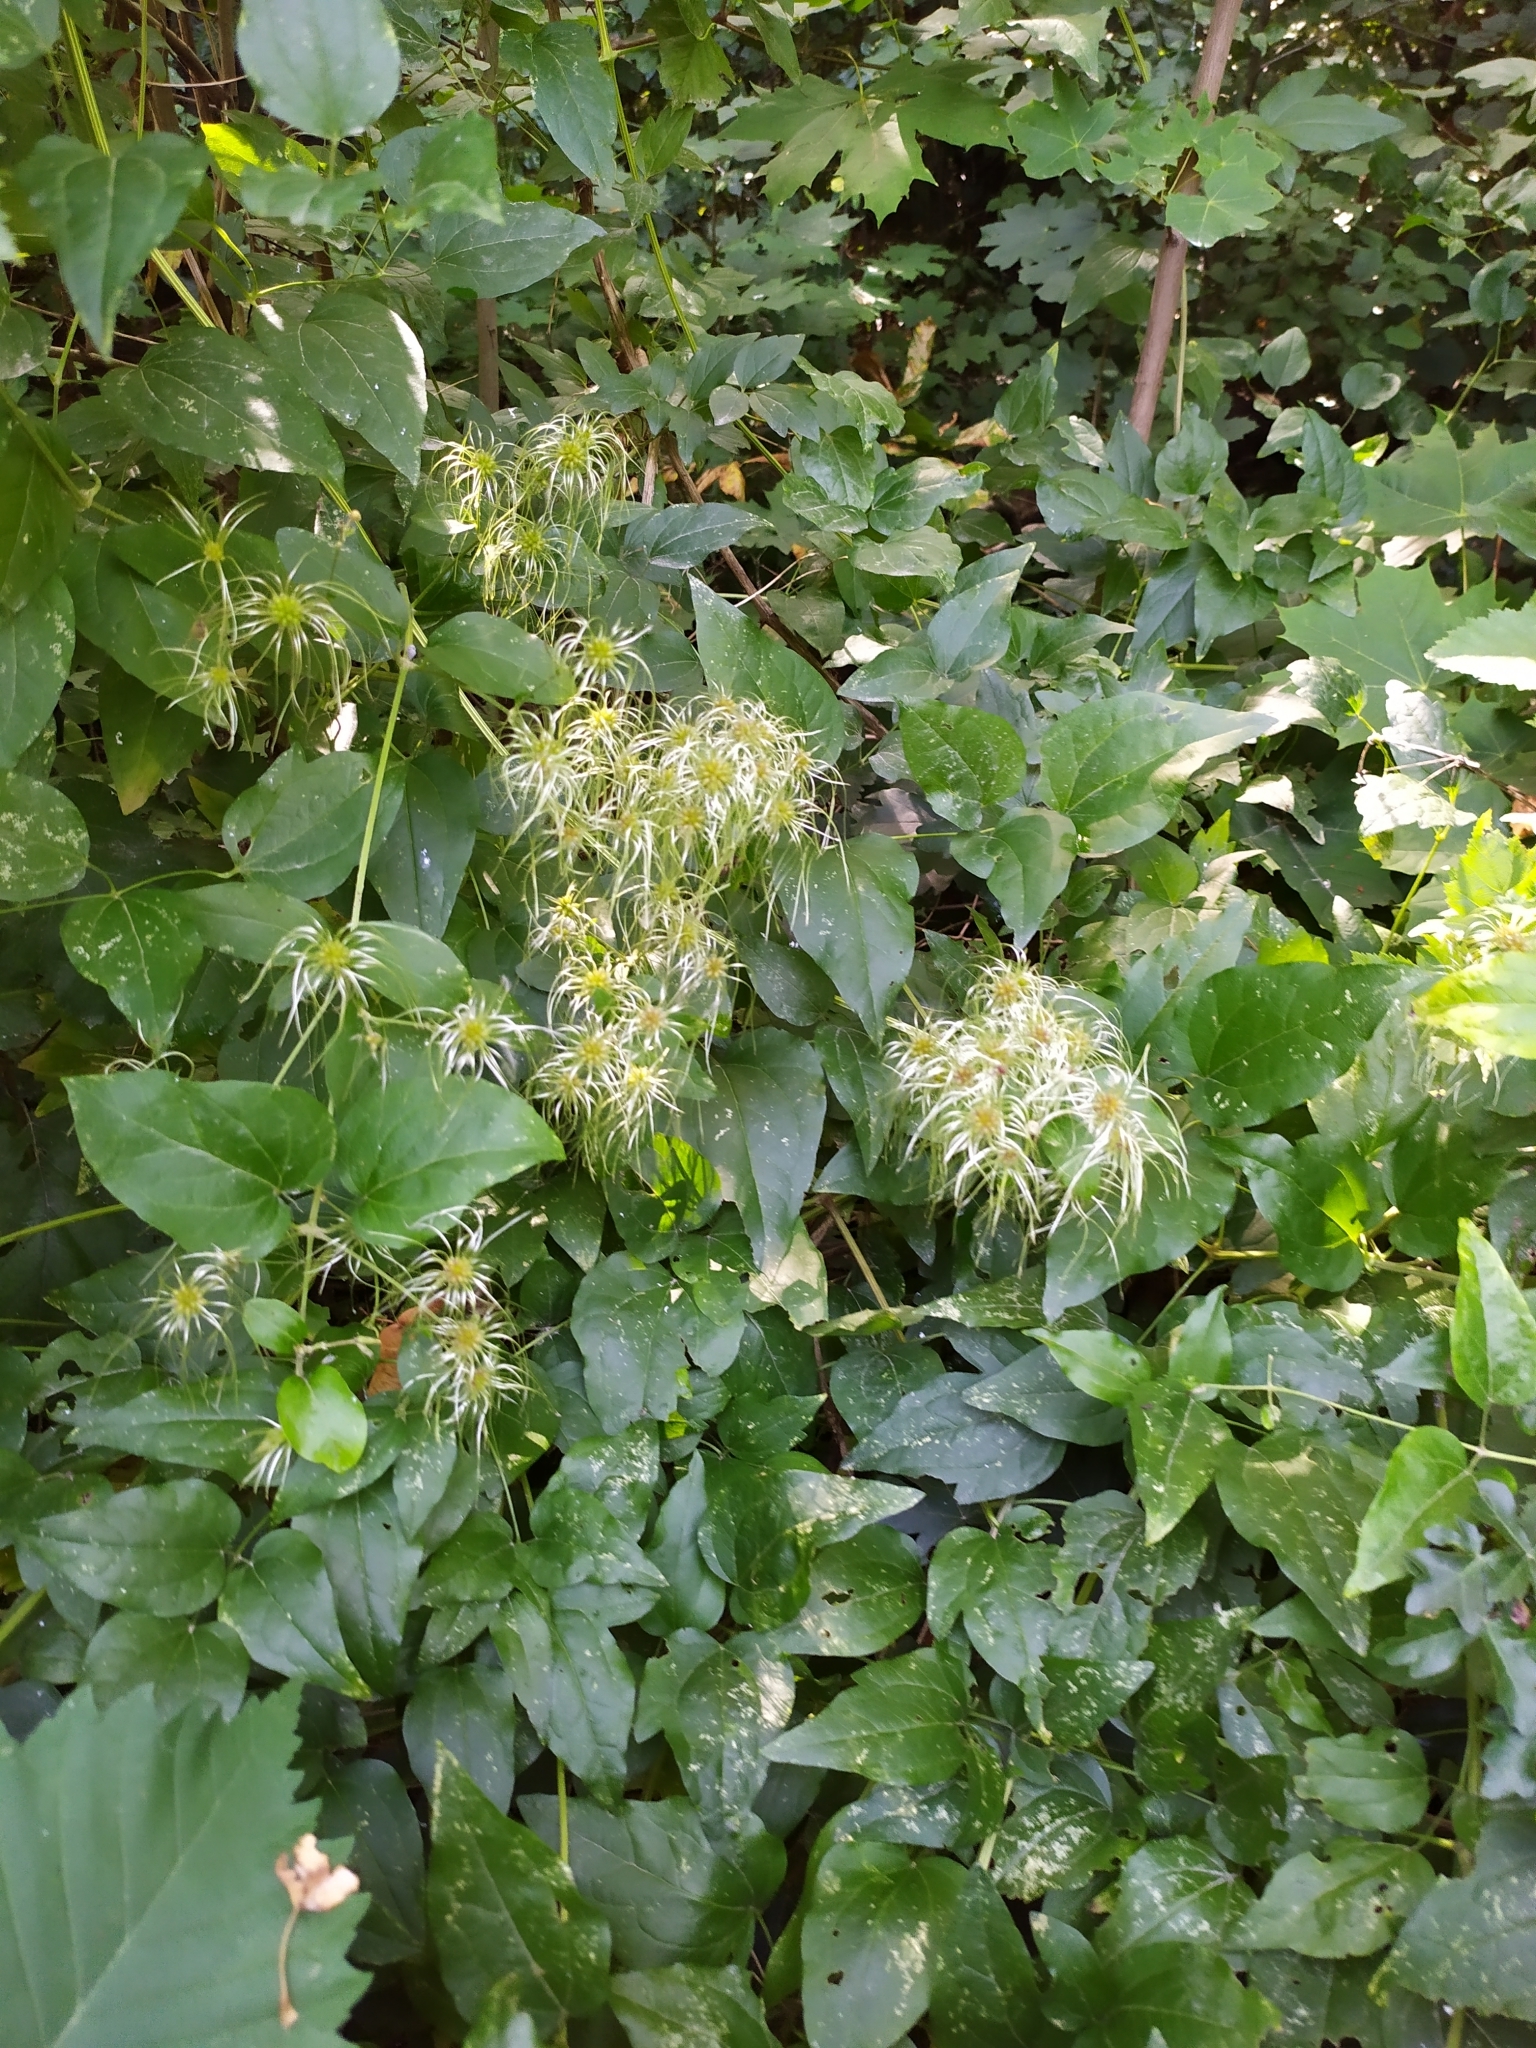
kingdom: Plantae
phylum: Tracheophyta
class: Magnoliopsida
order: Ranunculales
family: Ranunculaceae
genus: Clematis
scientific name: Clematis vitalba
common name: Evergreen clematis
